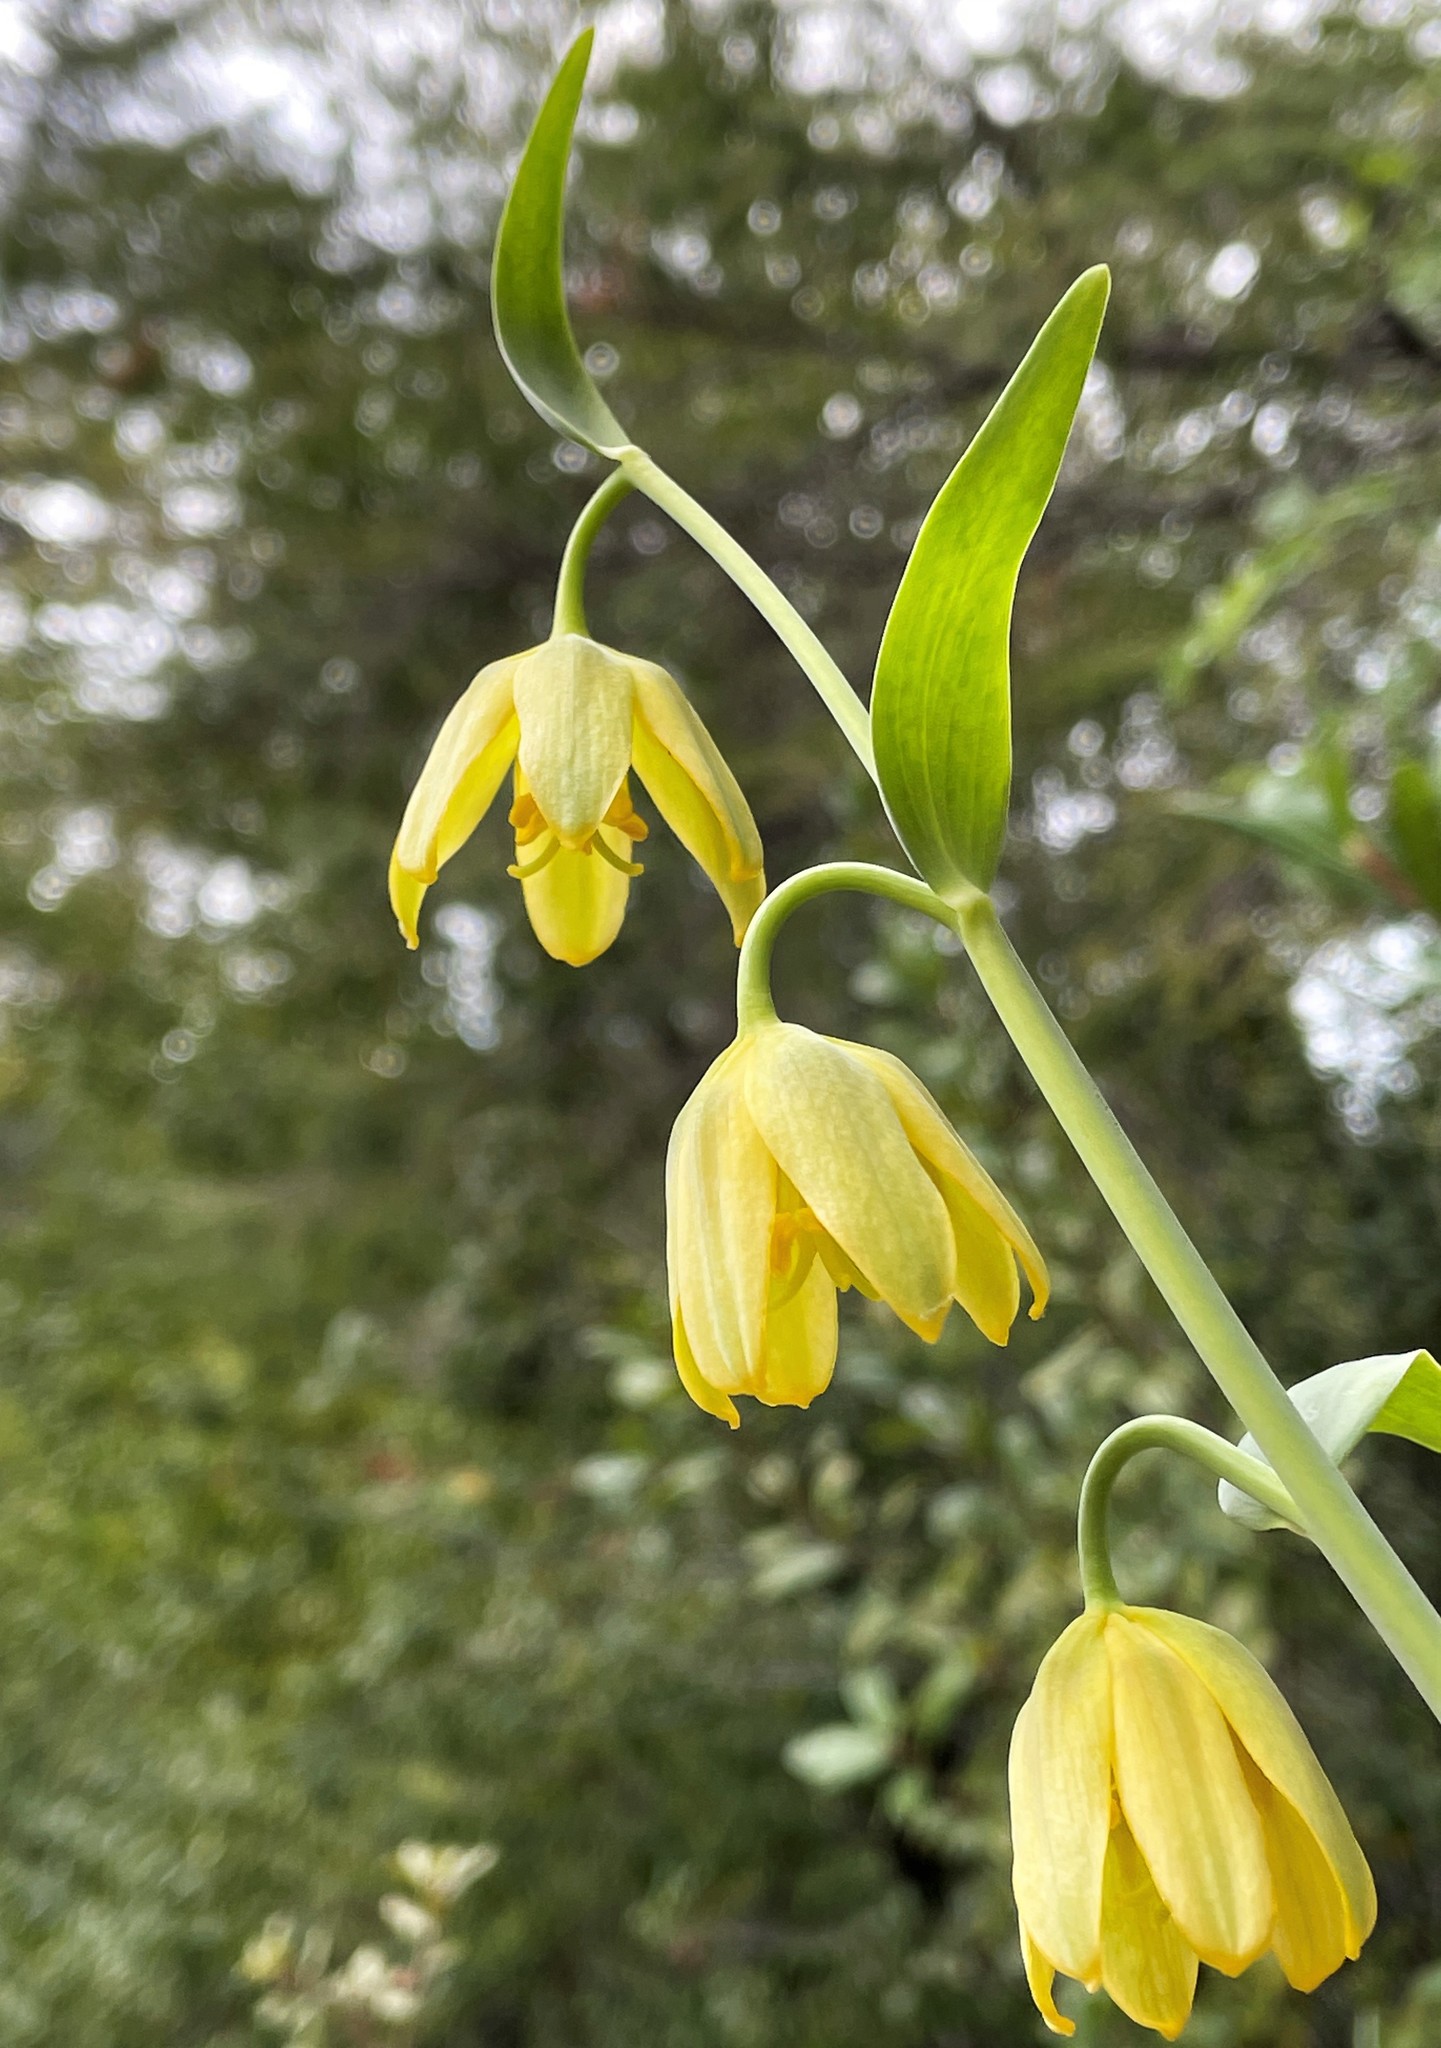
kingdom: Plantae
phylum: Tracheophyta
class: Liliopsida
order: Liliales
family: Liliaceae
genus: Fritillaria
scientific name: Fritillaria affinis
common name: Ojai fritillary
